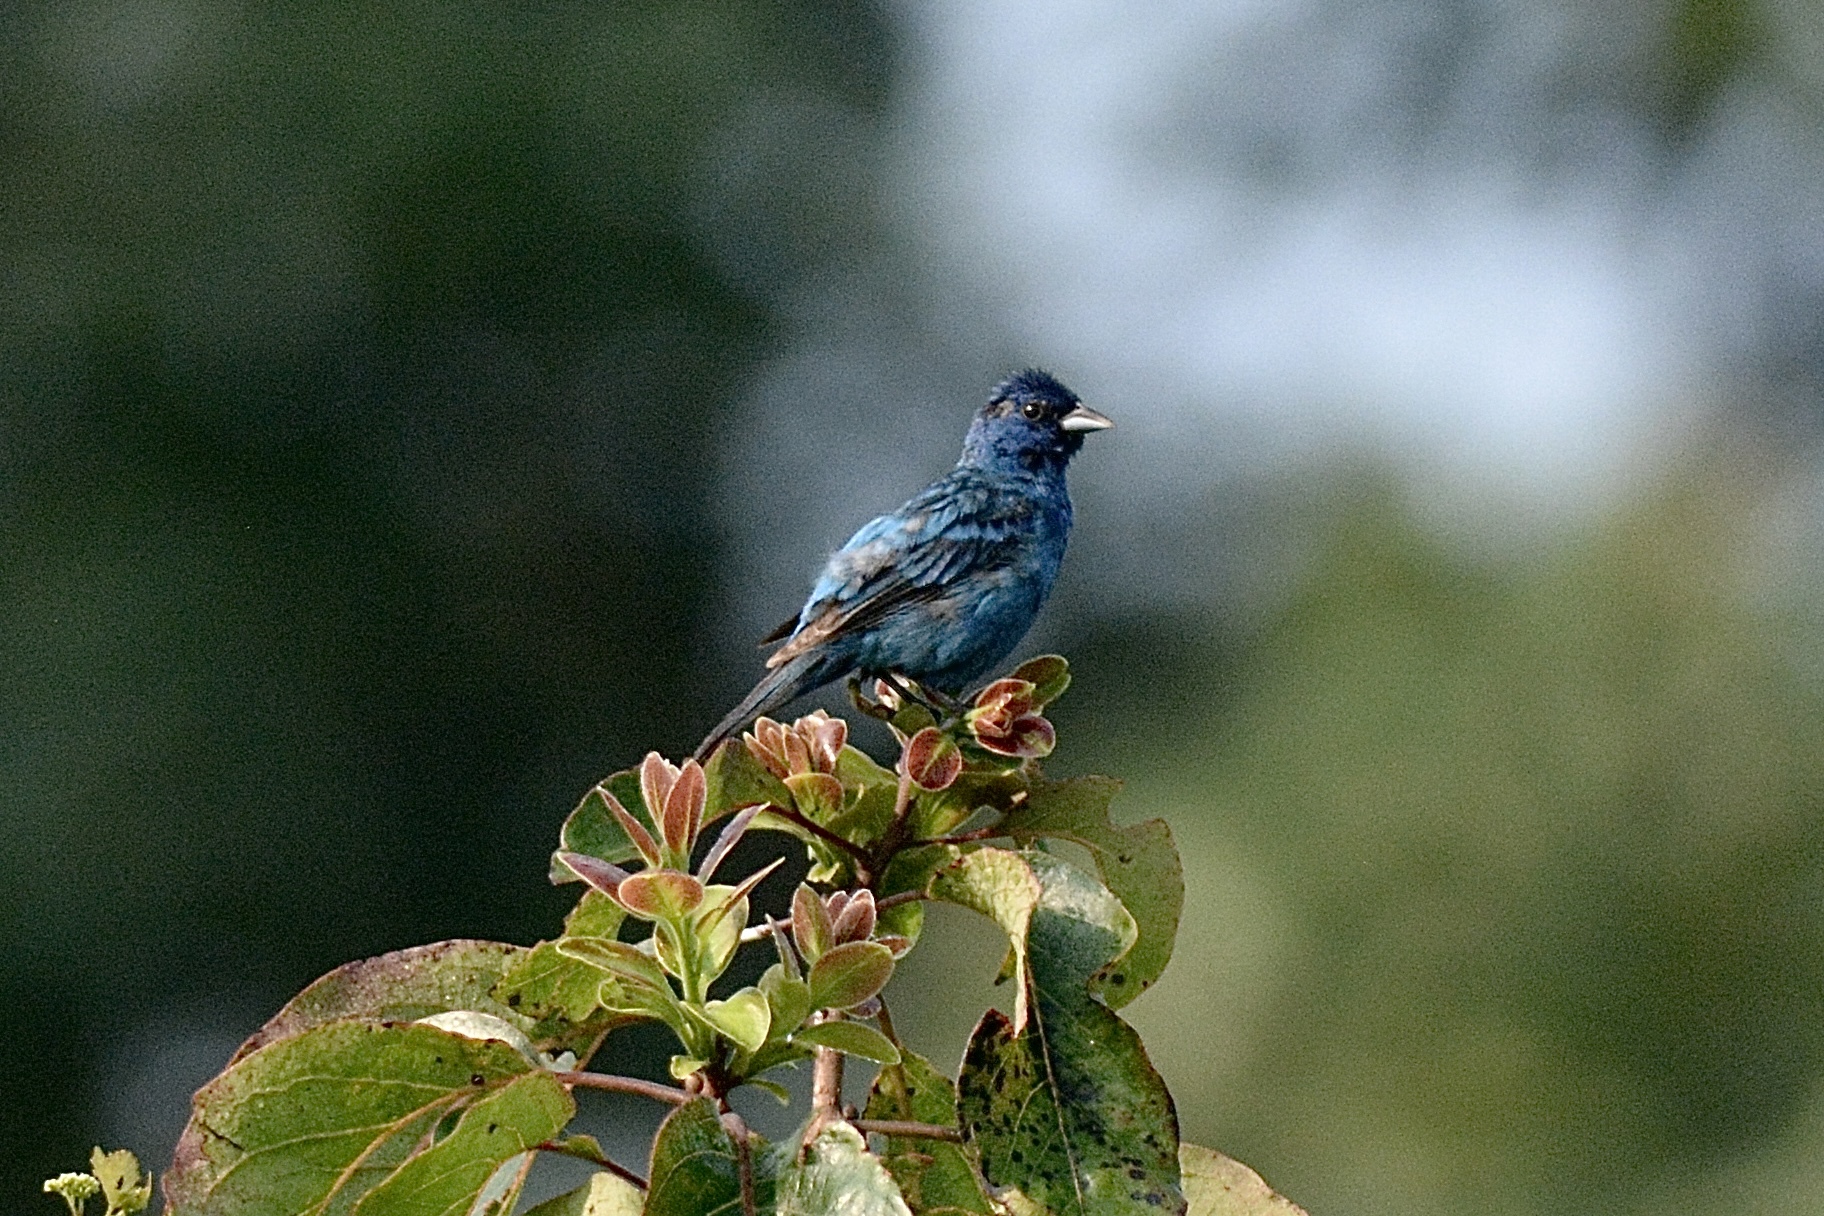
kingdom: Animalia
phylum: Chordata
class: Aves
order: Passeriformes
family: Cardinalidae
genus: Passerina
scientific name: Passerina cyanea
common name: Indigo bunting
